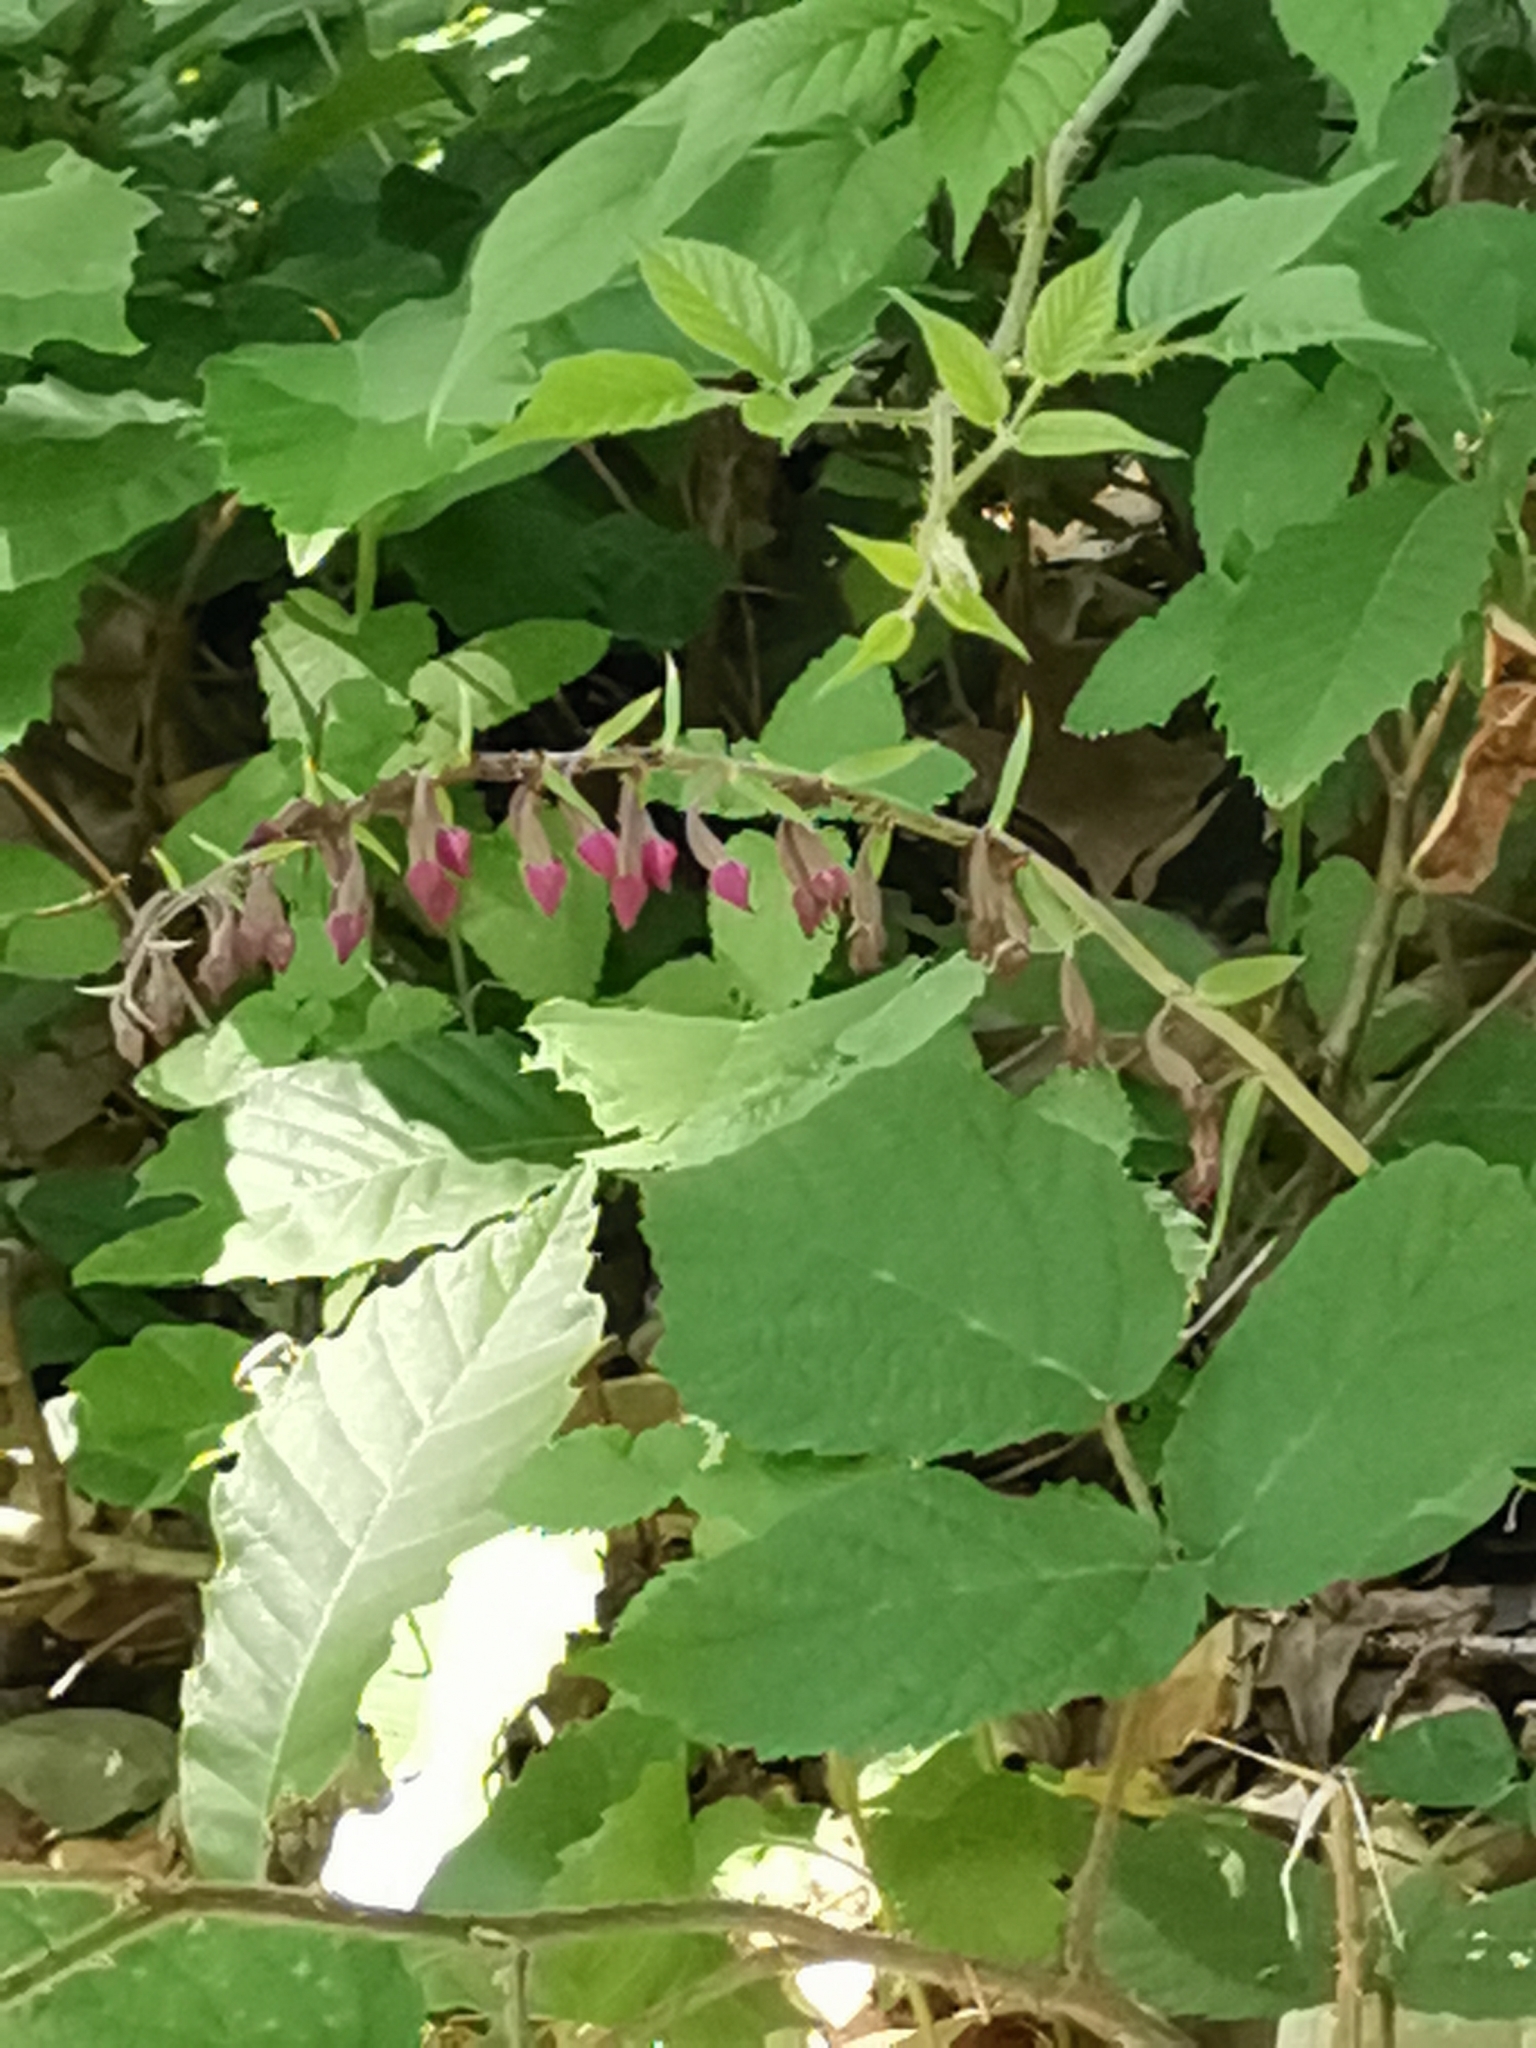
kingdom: Plantae
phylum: Tracheophyta
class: Liliopsida
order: Asparagales
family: Orchidaceae
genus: Epipactis
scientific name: Epipactis atrorubens
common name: Dark-red helleborine
